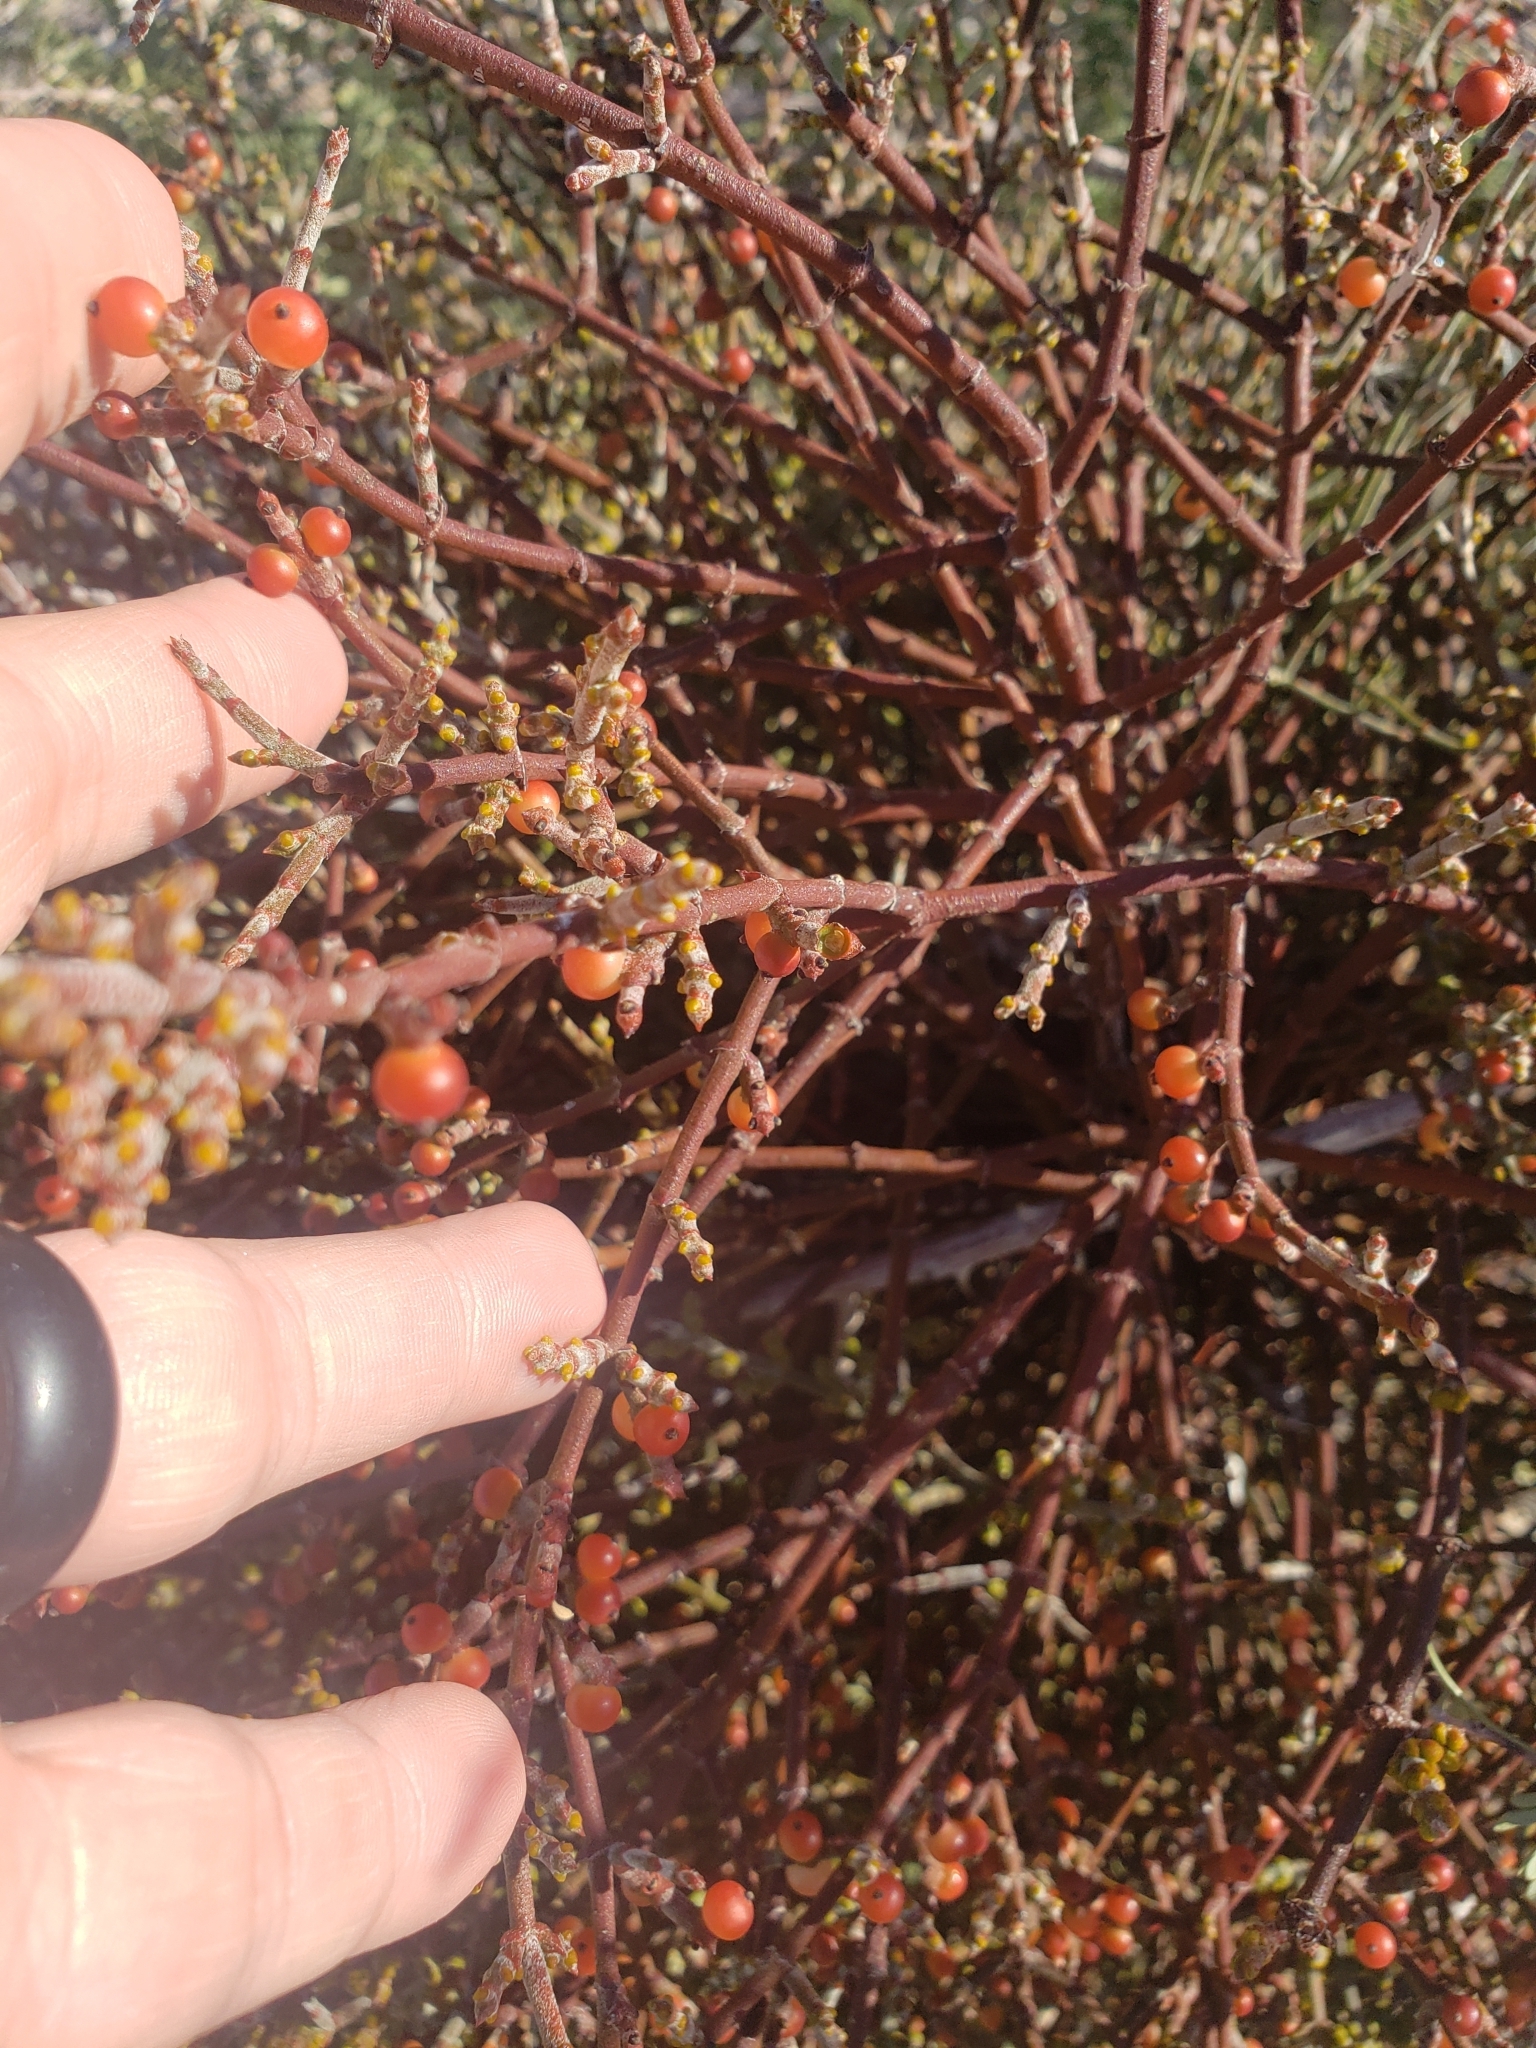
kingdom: Plantae
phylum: Tracheophyta
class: Magnoliopsida
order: Santalales
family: Viscaceae
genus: Phoradendron
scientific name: Phoradendron californicum
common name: Acacia mistletoe
